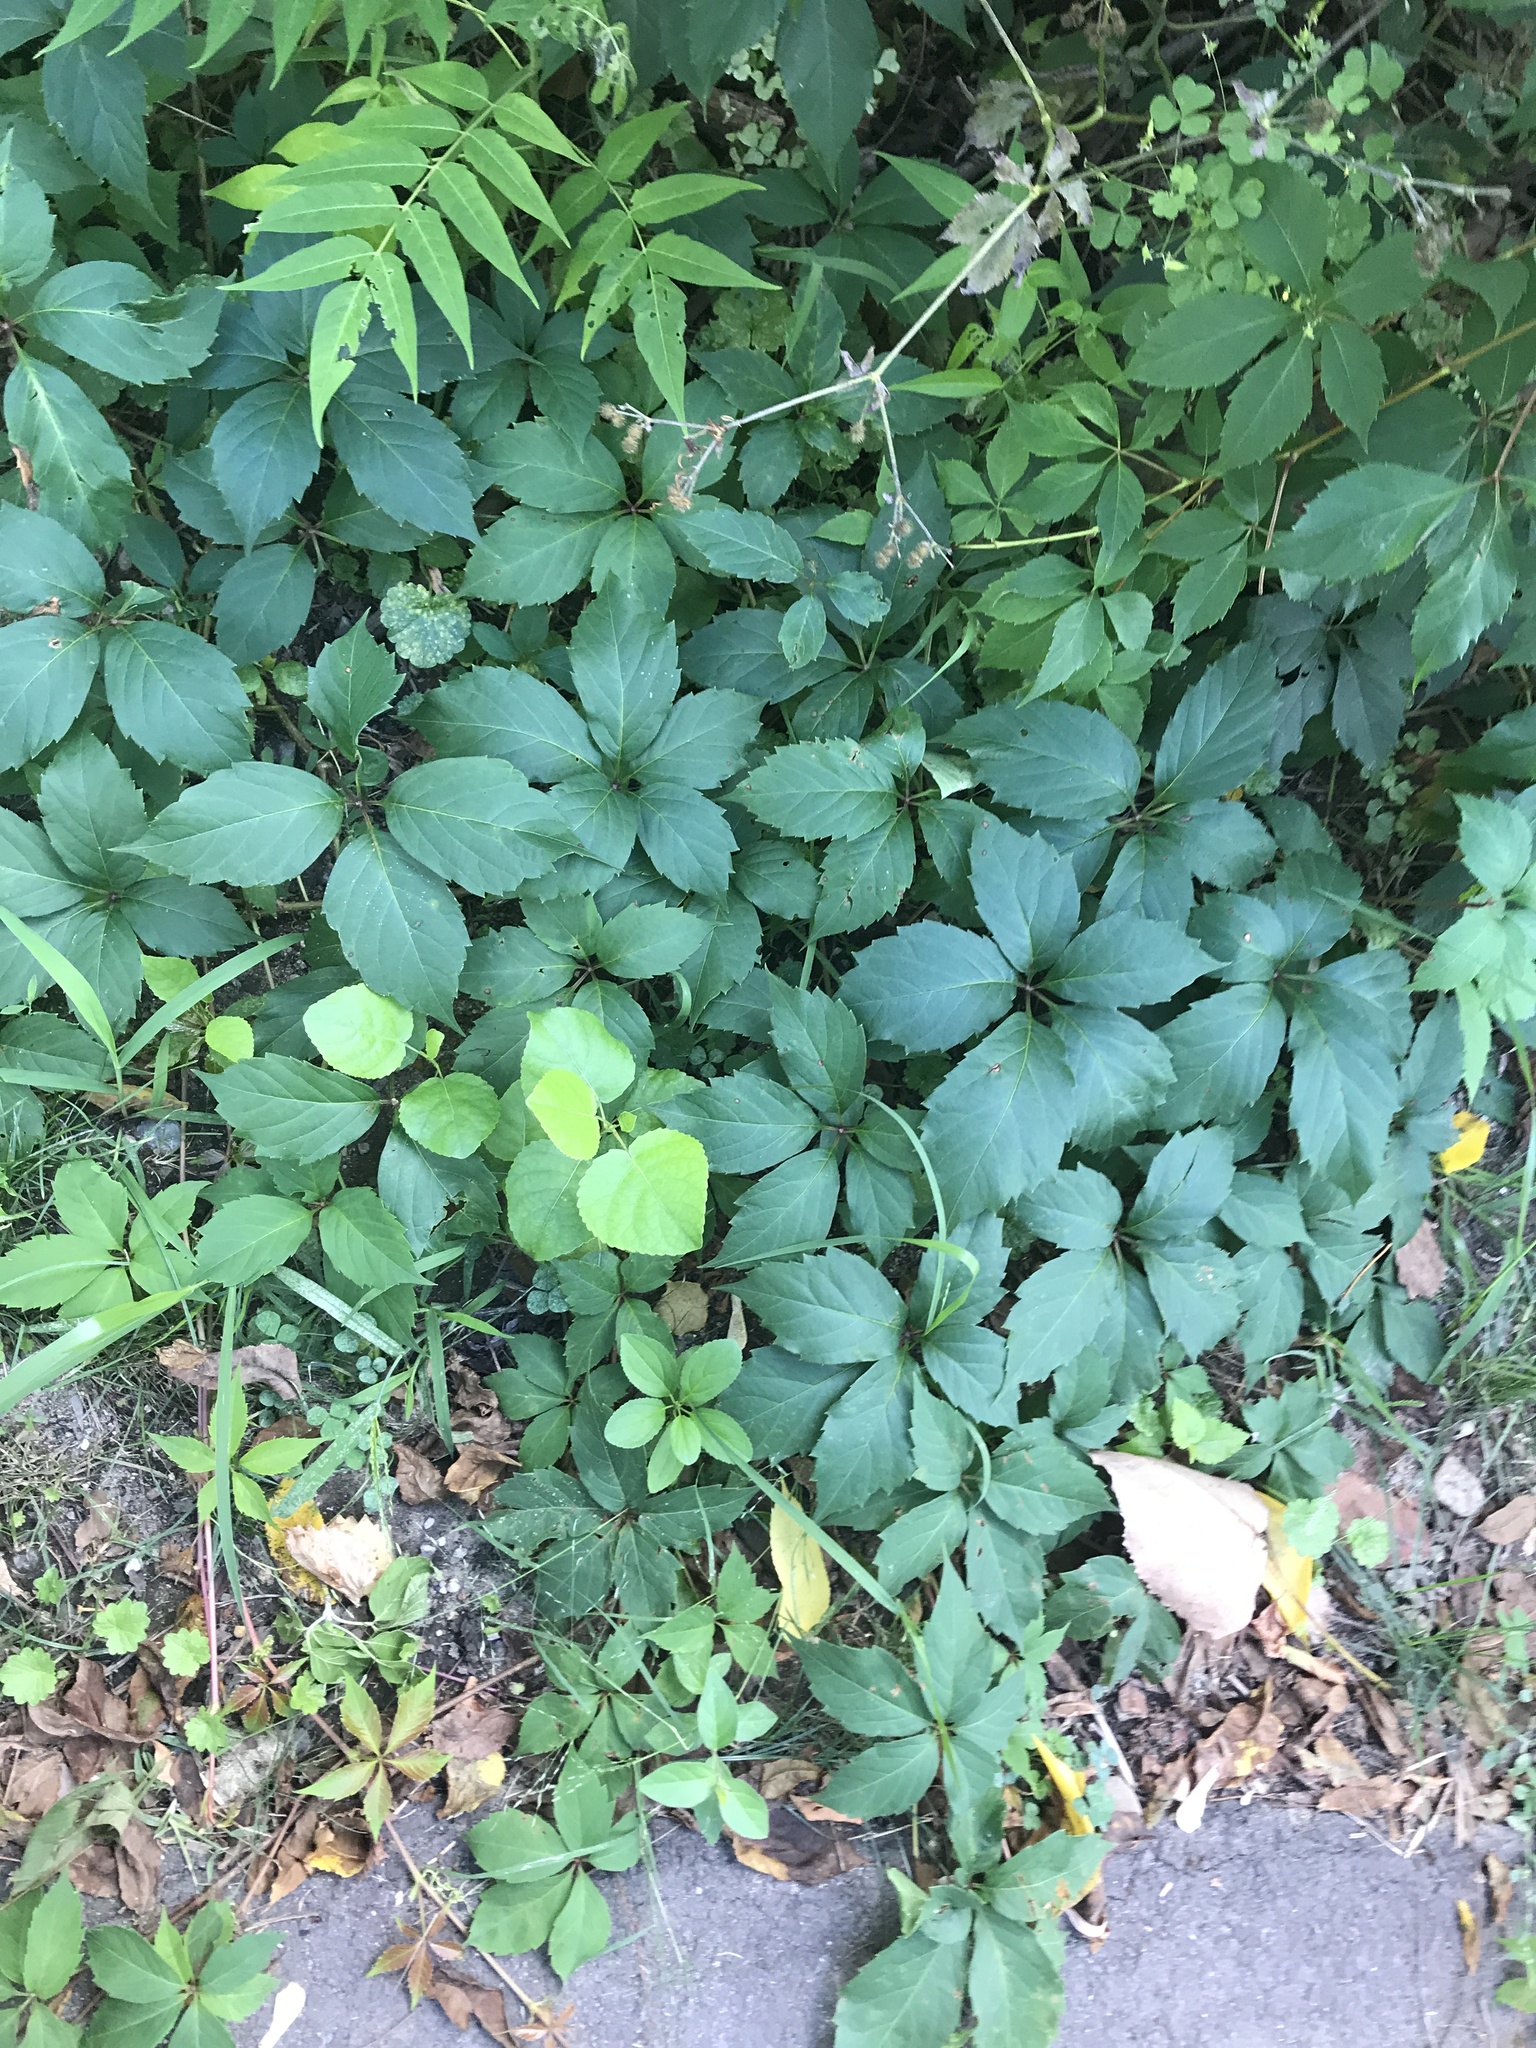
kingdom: Plantae
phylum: Tracheophyta
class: Magnoliopsida
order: Vitales
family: Vitaceae
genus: Parthenocissus
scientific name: Parthenocissus inserta
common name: False virginia-creeper
